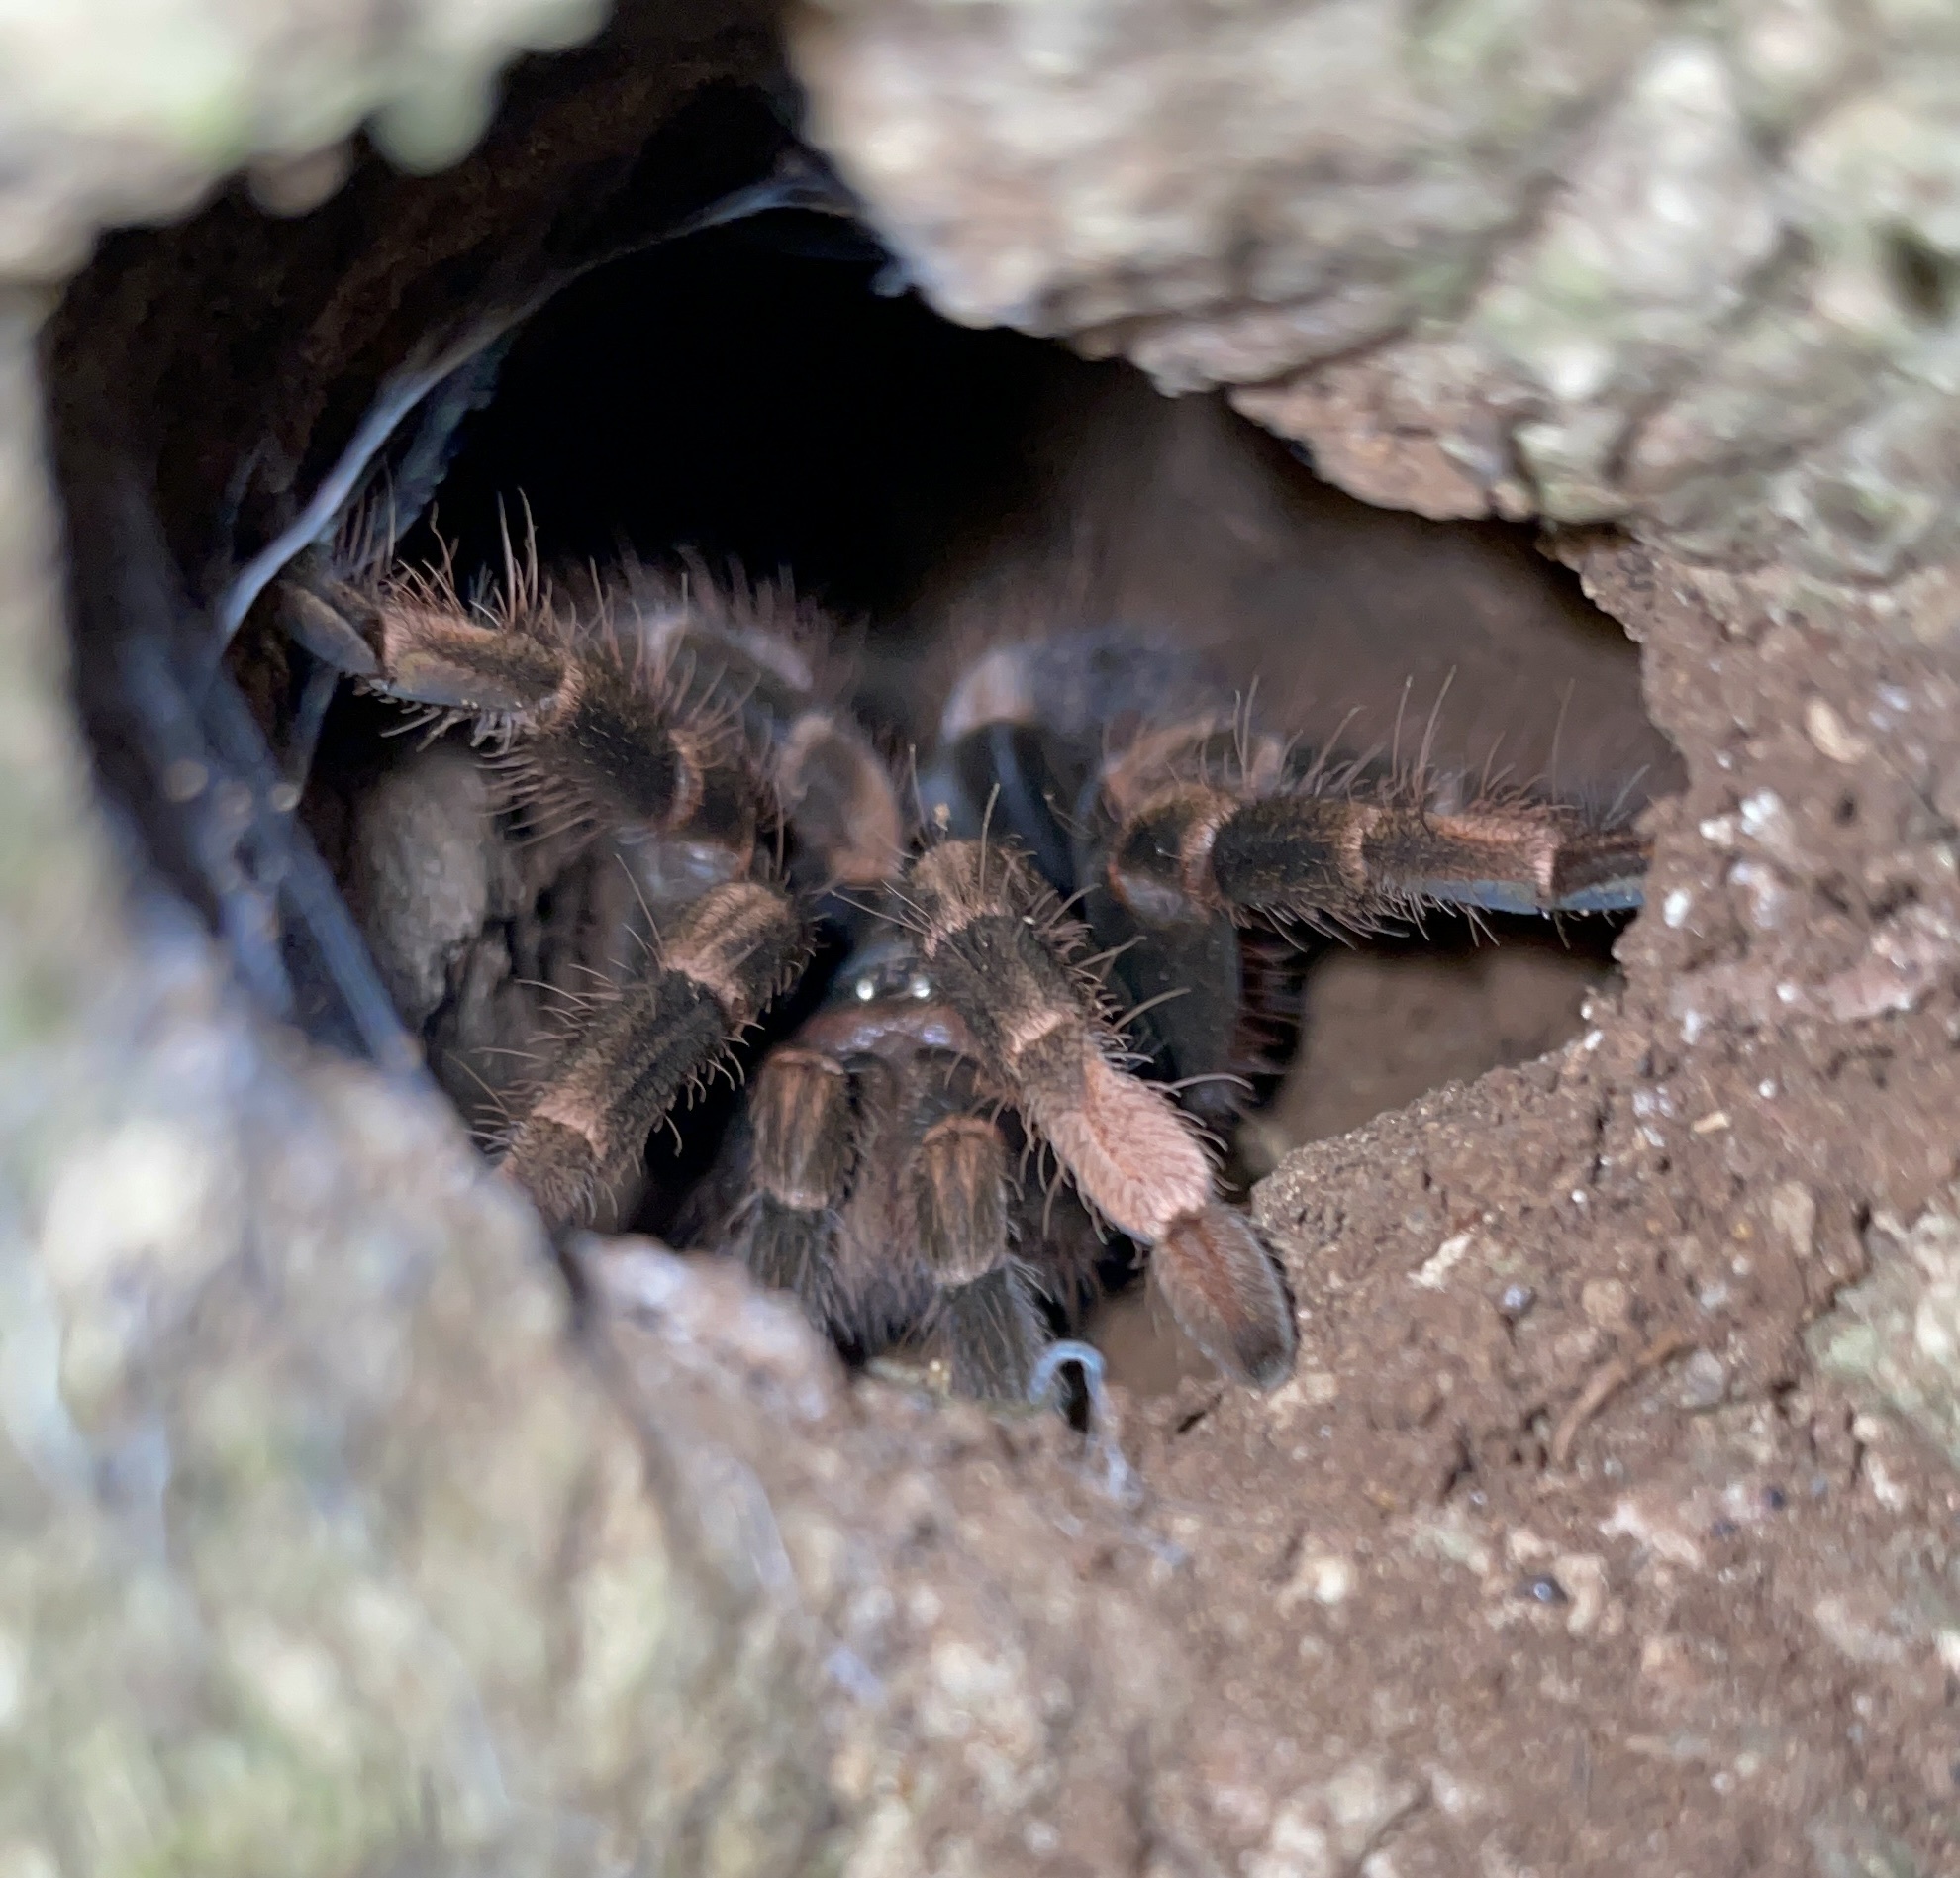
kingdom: Animalia
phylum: Arthropoda
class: Arachnida
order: Araneae
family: Theraphosidae
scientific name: Theraphosidae
